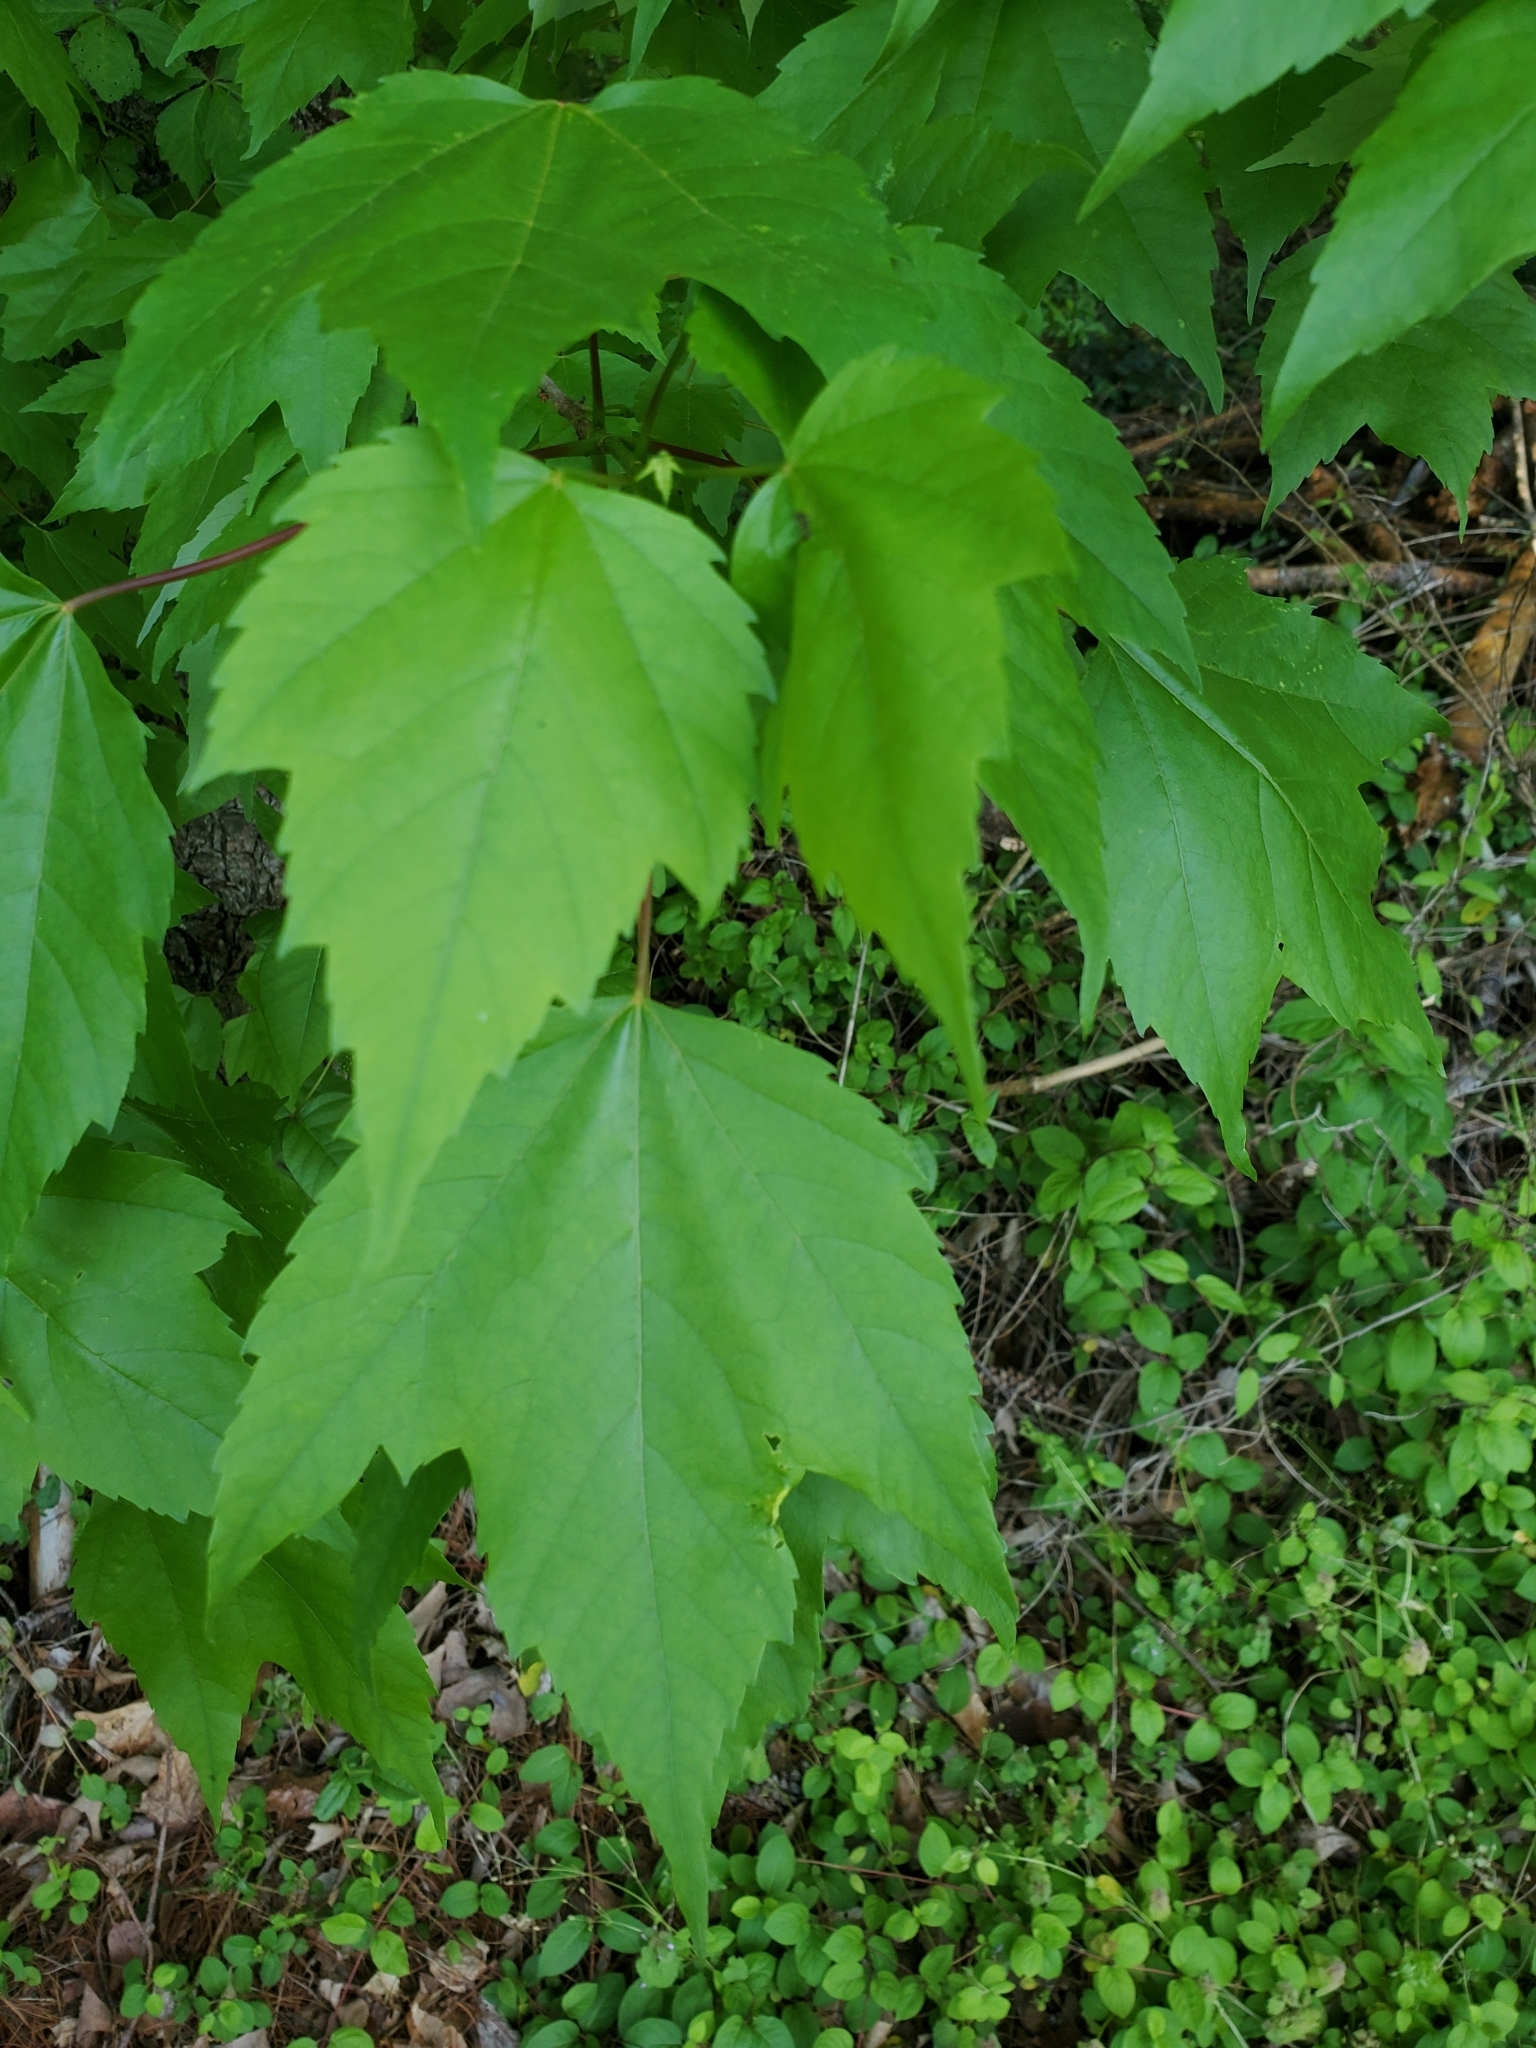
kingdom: Plantae
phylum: Tracheophyta
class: Magnoliopsida
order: Sapindales
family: Sapindaceae
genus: Acer
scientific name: Acer rubrum
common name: Red maple
